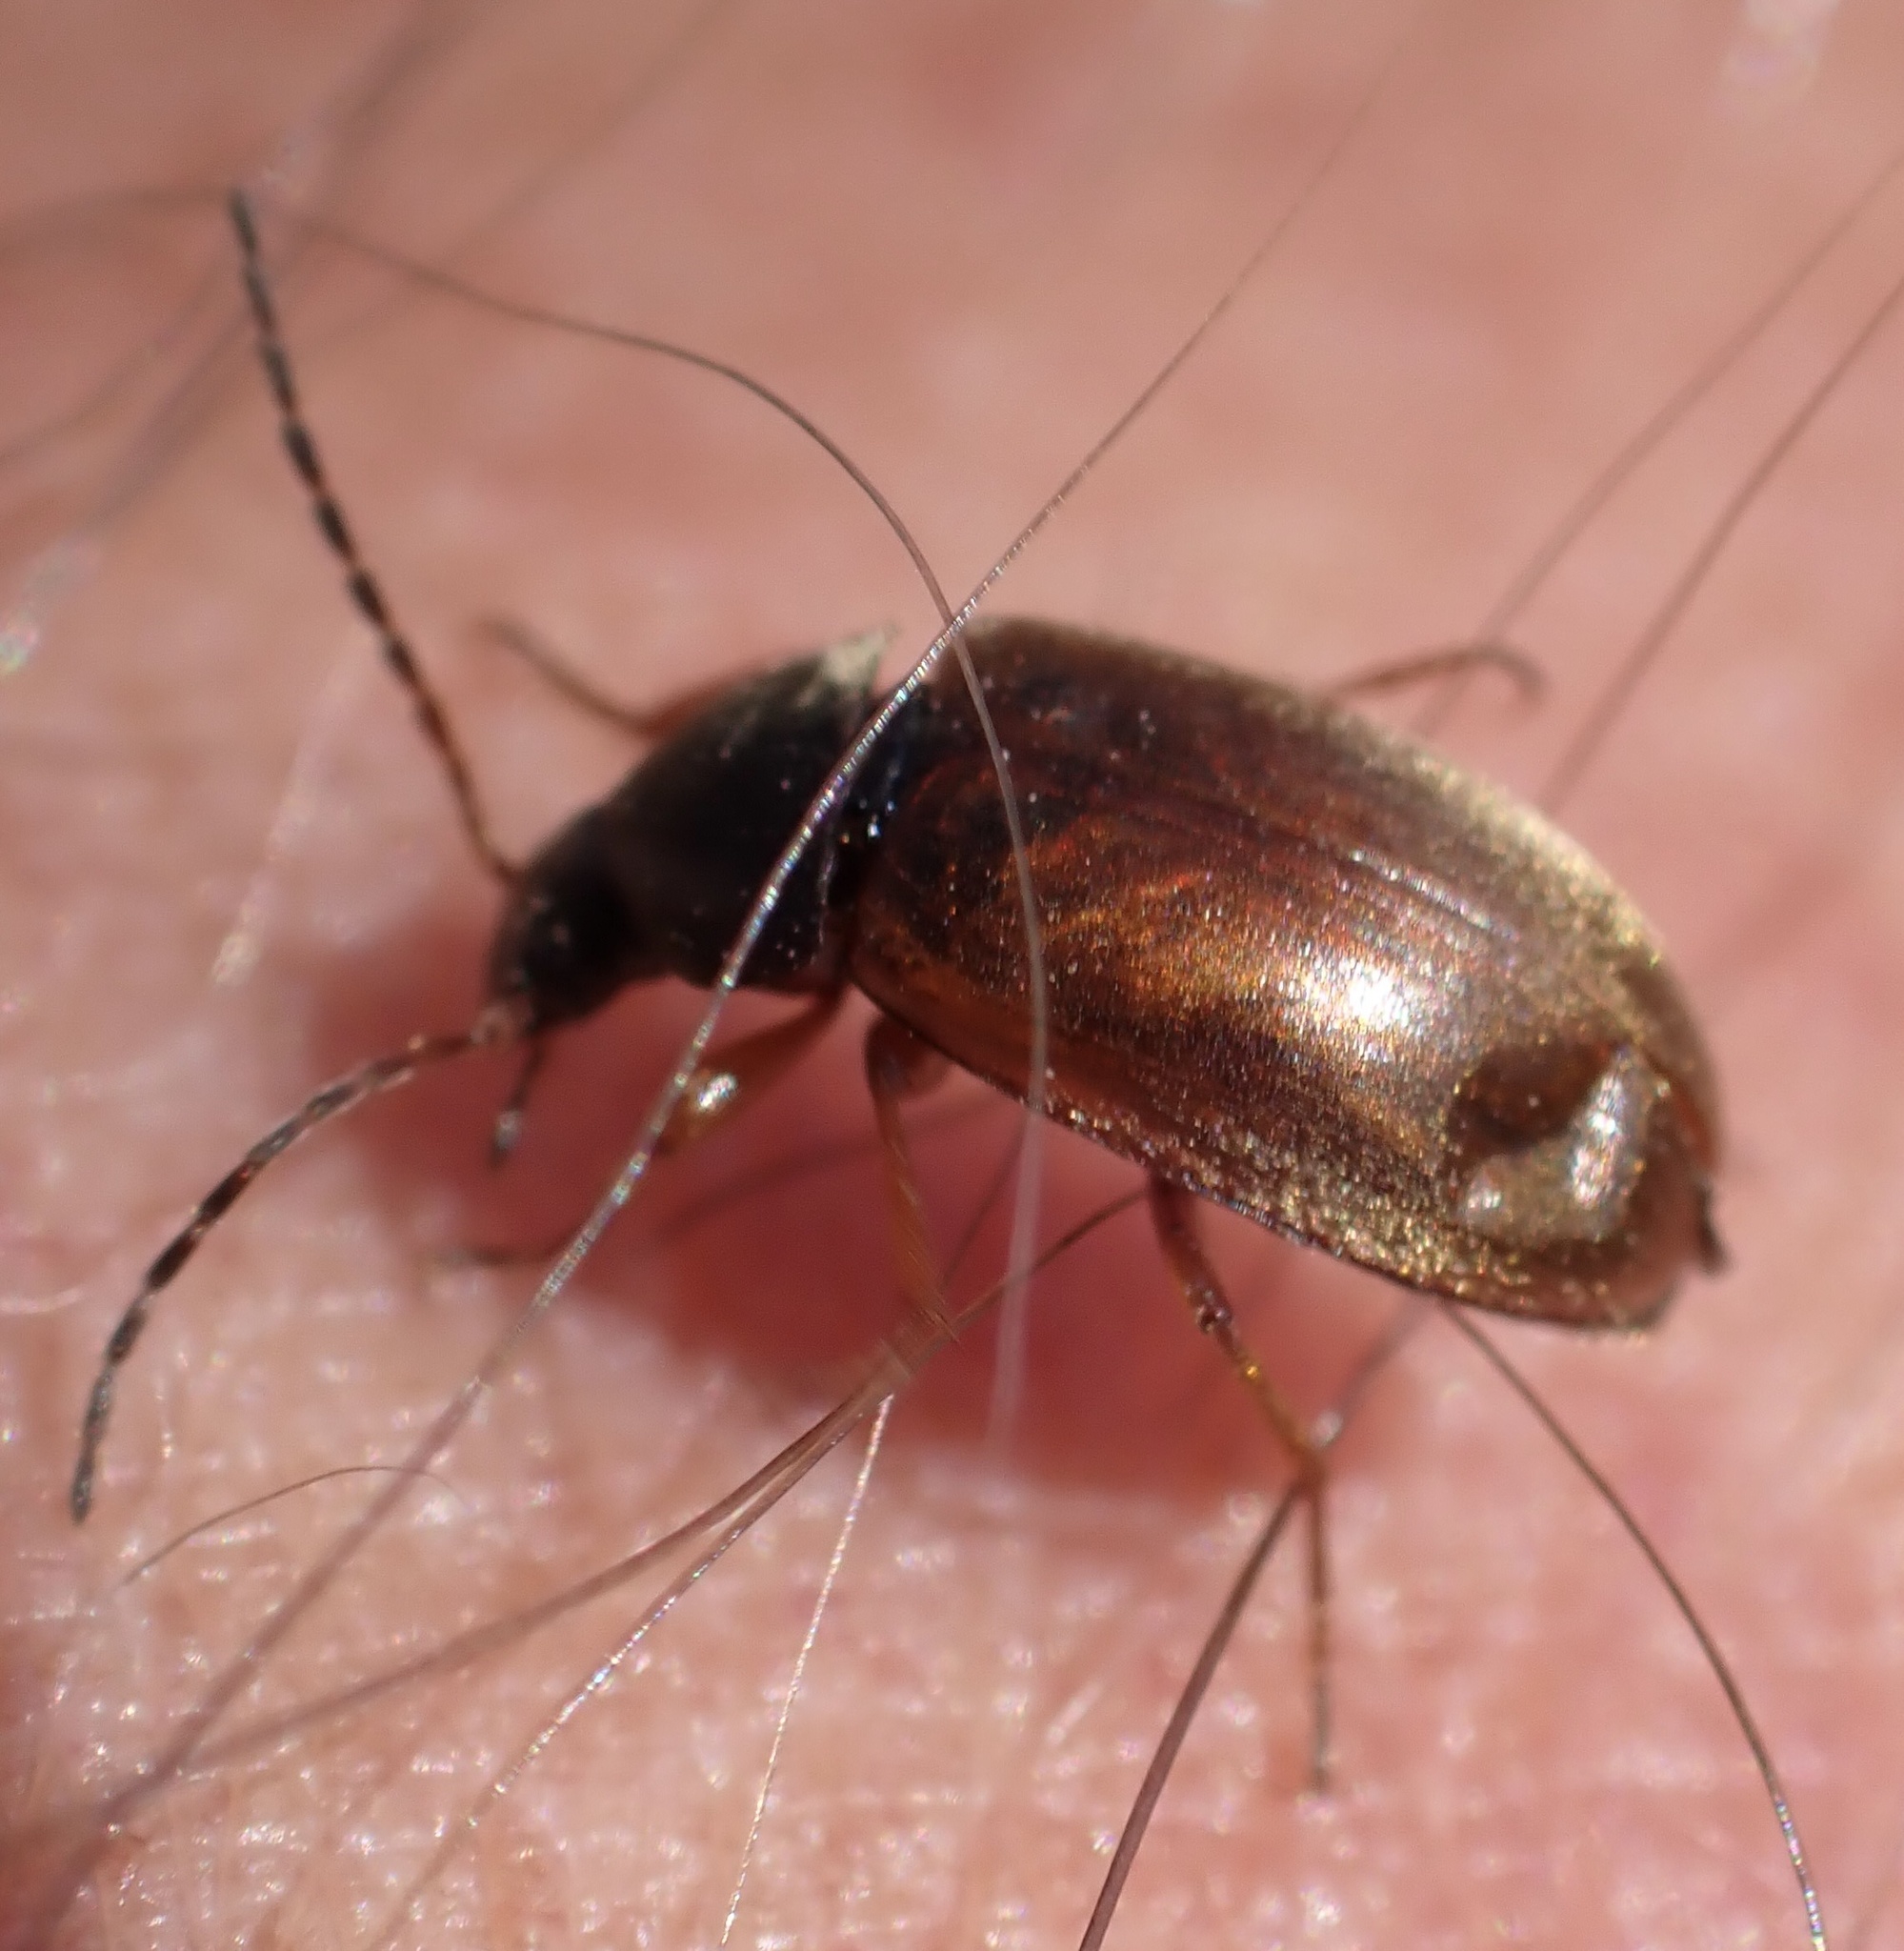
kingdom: Animalia
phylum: Arthropoda
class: Insecta
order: Coleoptera
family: Tenebrionidae
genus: Isomira
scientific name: Isomira murina
